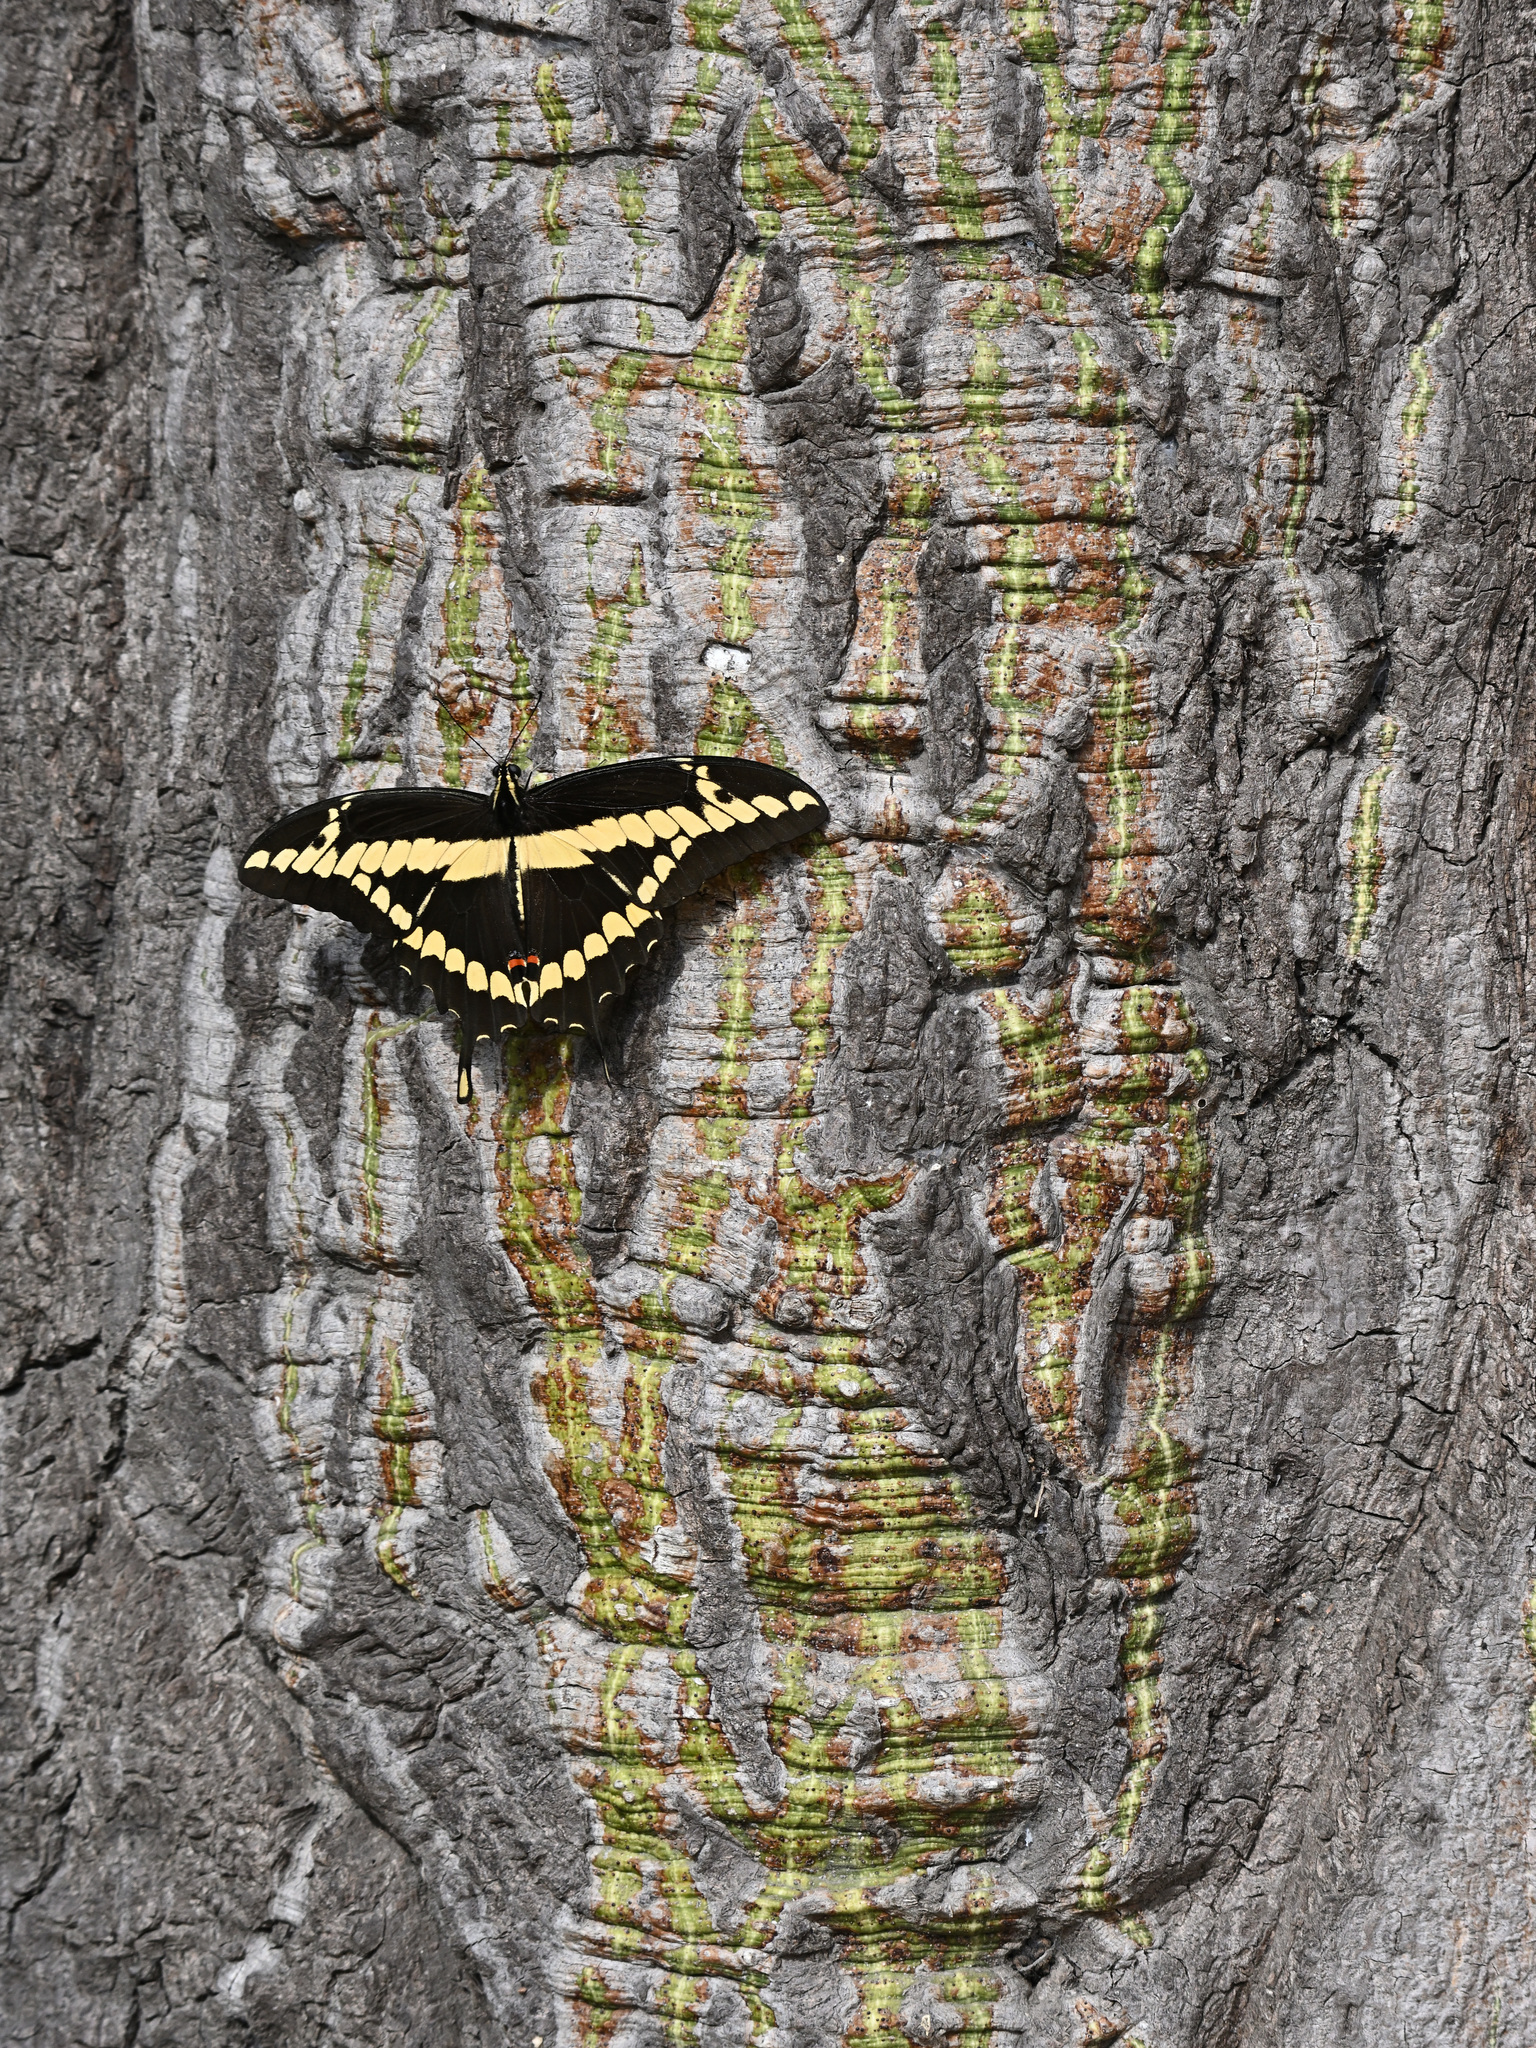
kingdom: Animalia
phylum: Arthropoda
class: Insecta
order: Lepidoptera
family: Papilionidae
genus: Papilio
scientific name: Papilio rumiko
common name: Western giant swallowtail
